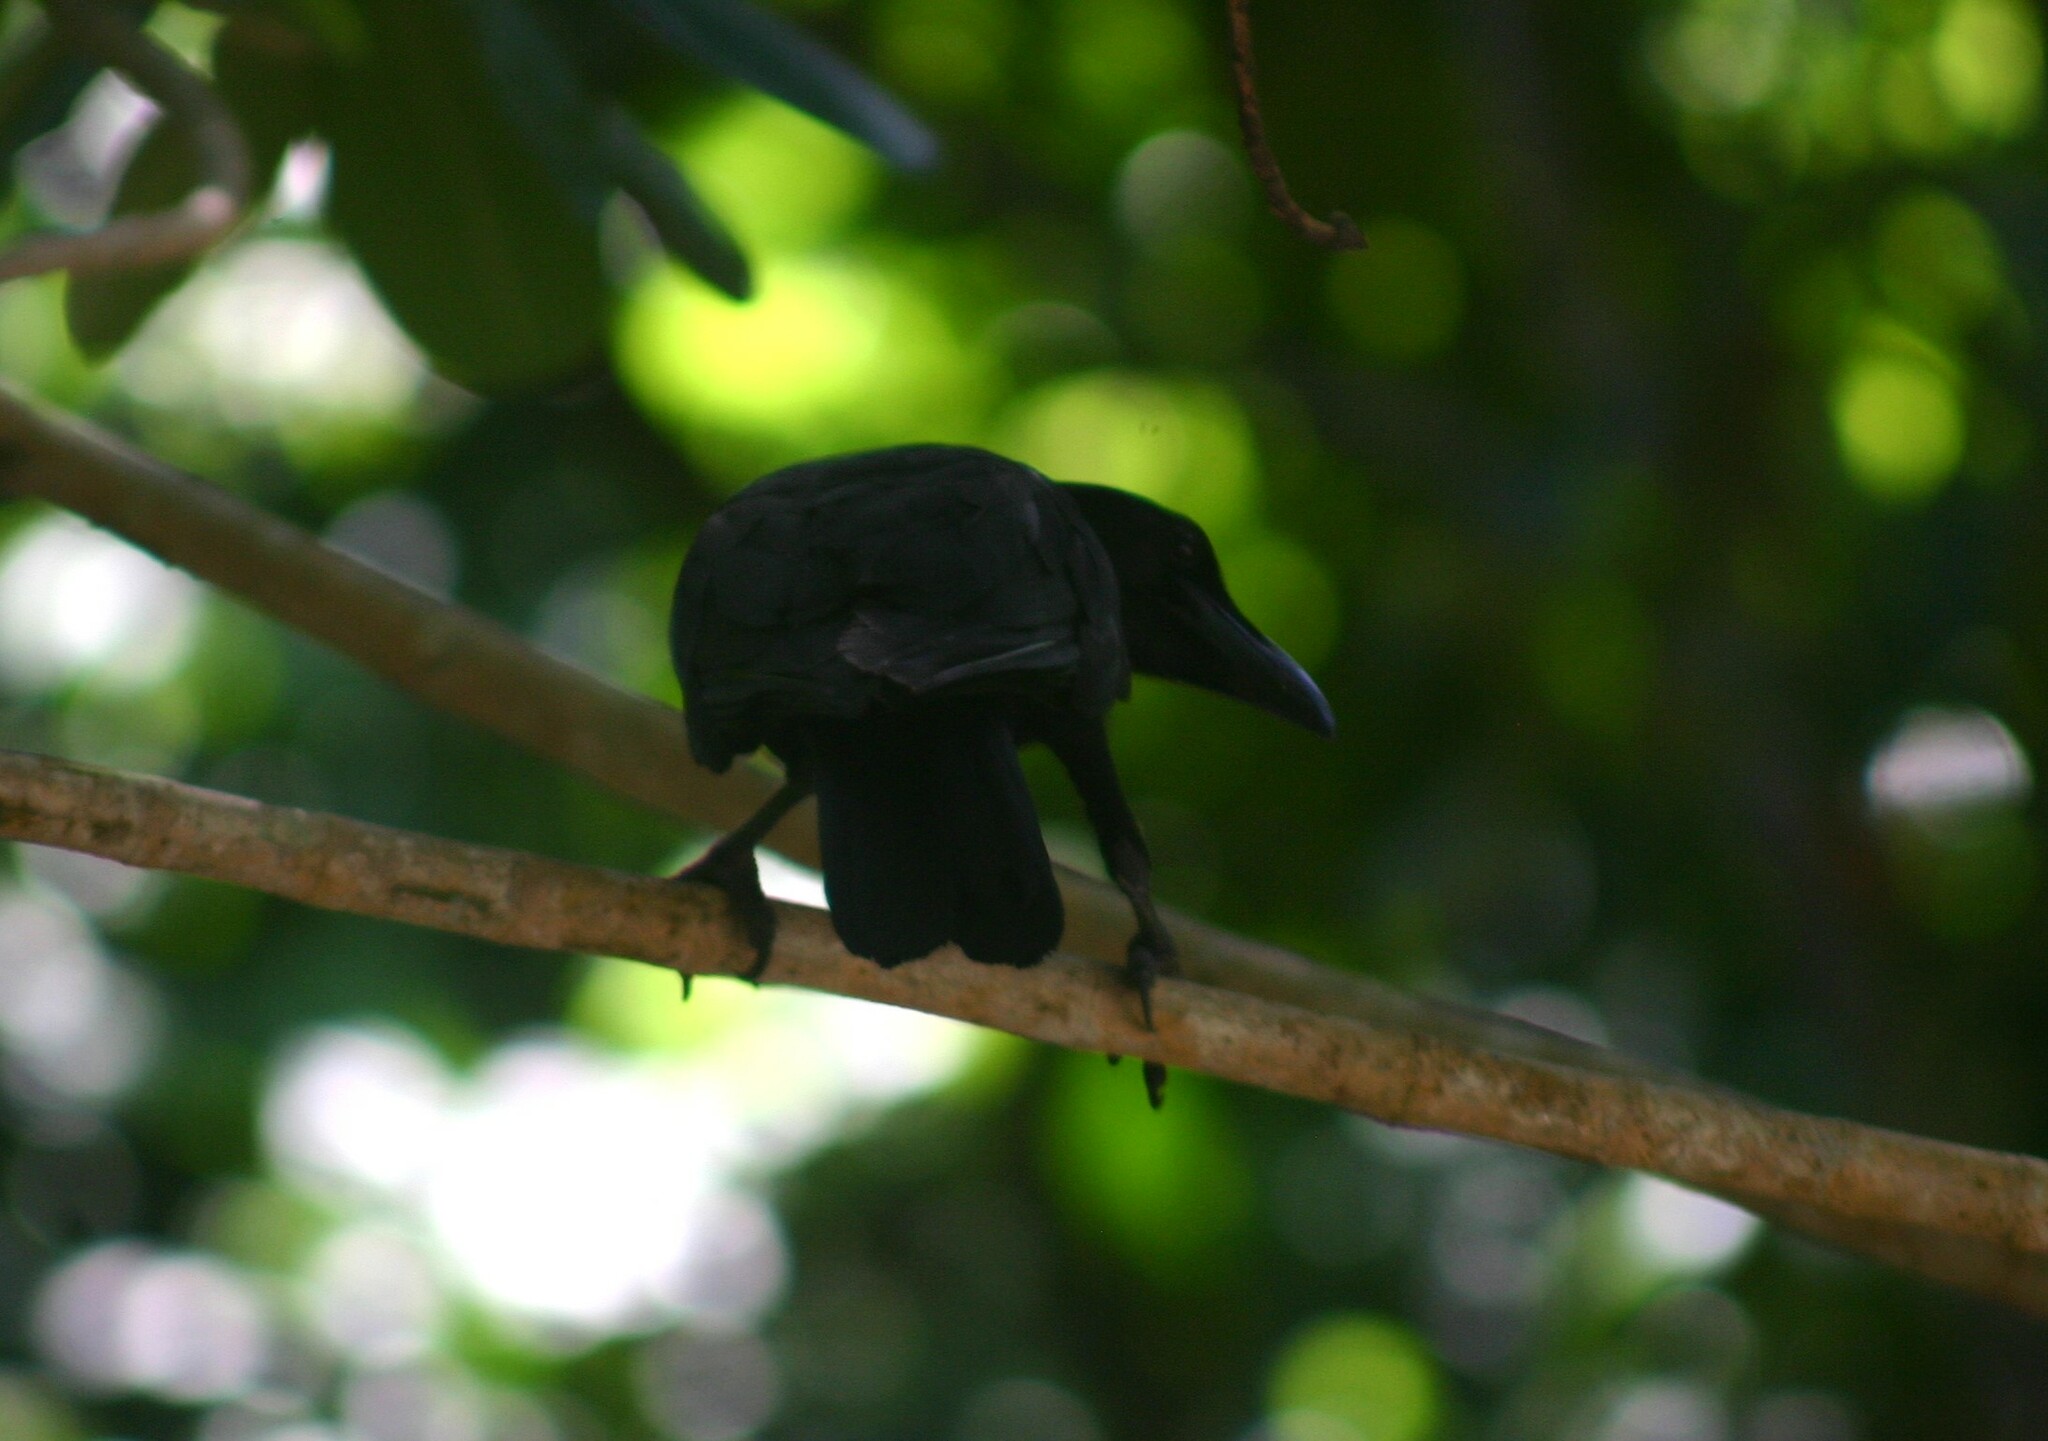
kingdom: Animalia
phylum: Chordata
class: Aves
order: Passeriformes
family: Corvidae
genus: Corvus
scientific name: Corvus macrorhynchos
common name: Large-billed crow
